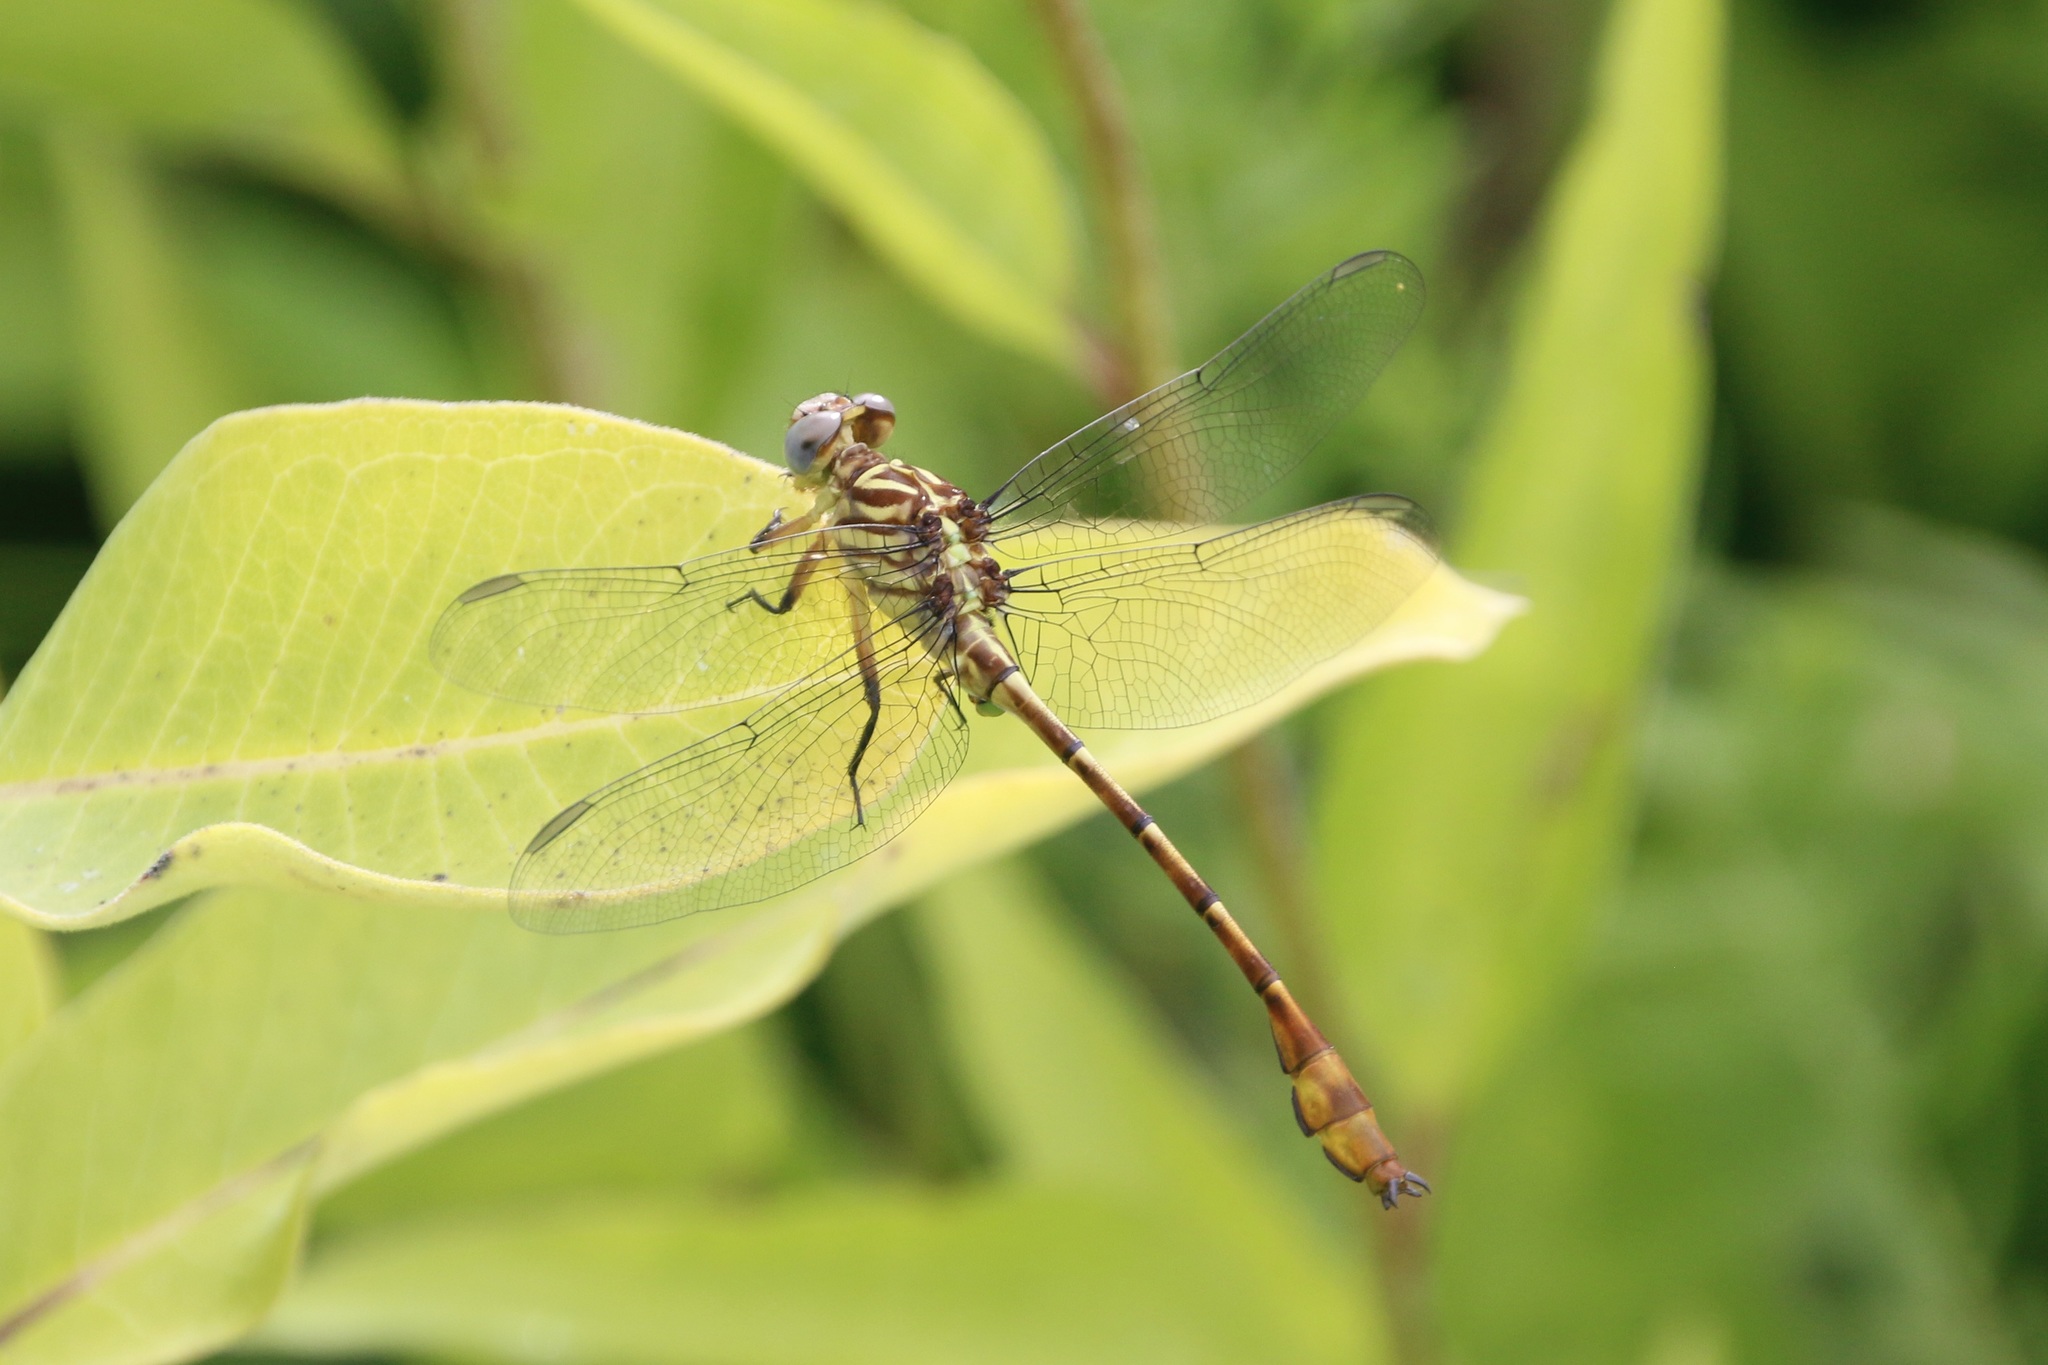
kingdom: Animalia
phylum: Arthropoda
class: Insecta
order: Odonata
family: Gomphidae
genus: Stylurus
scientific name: Stylurus plagiatus
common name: Russet-tipped clubtail
